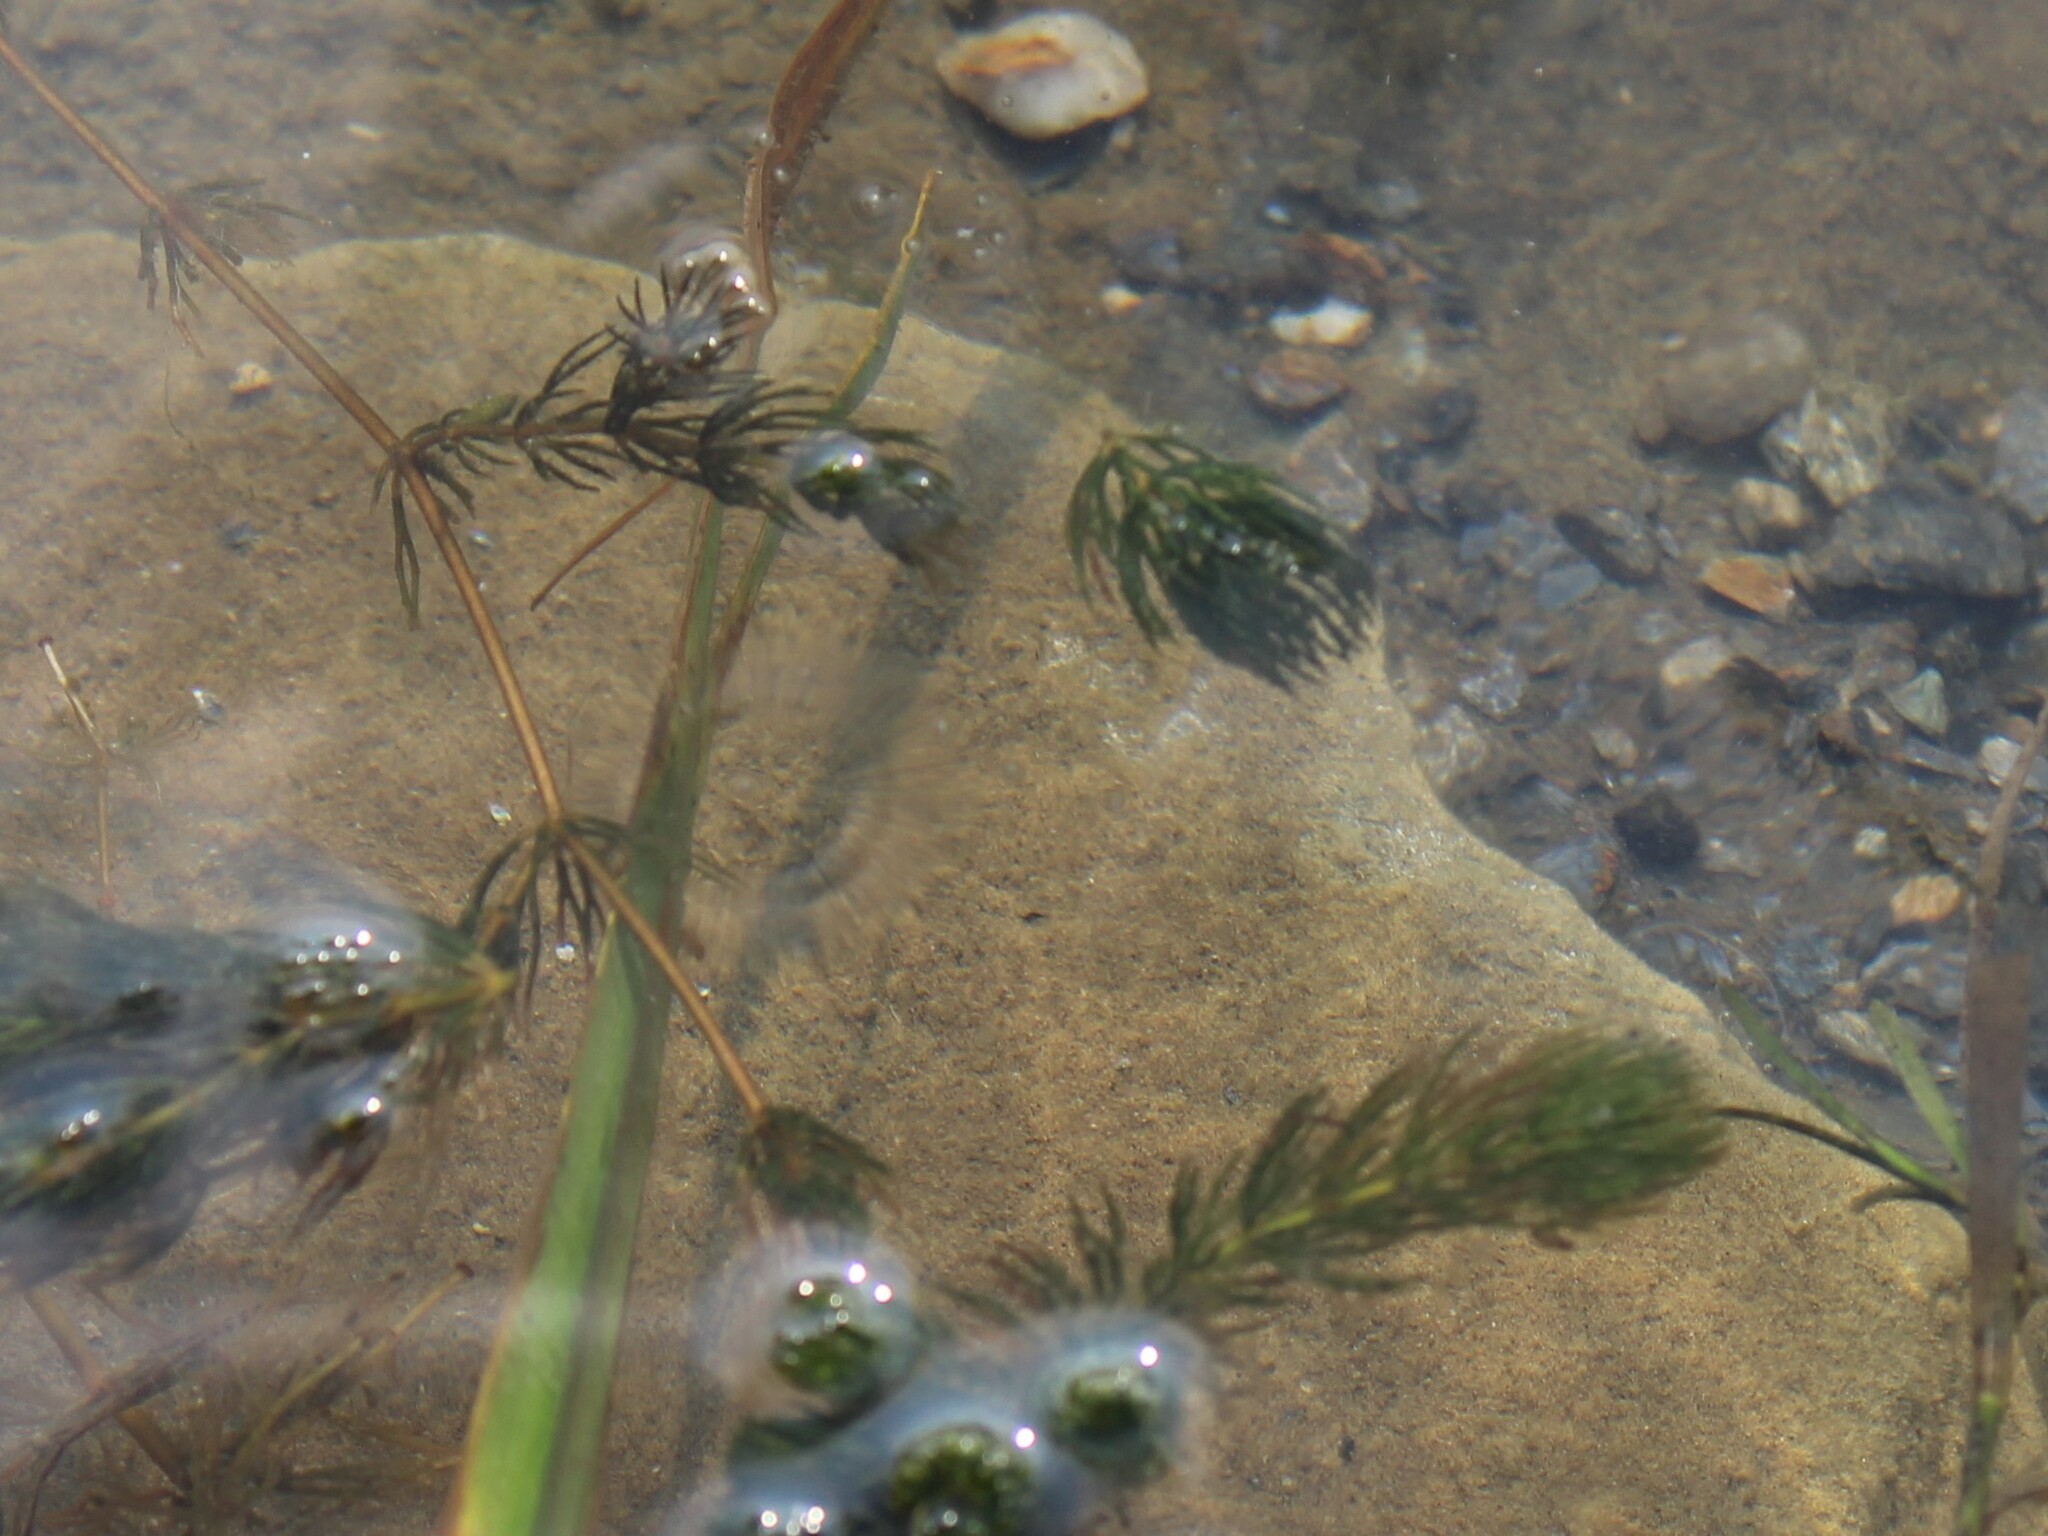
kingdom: Plantae
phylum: Tracheophyta
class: Magnoliopsida
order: Ceratophyllales
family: Ceratophyllaceae
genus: Ceratophyllum
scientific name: Ceratophyllum demersum
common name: Rigid hornwort
